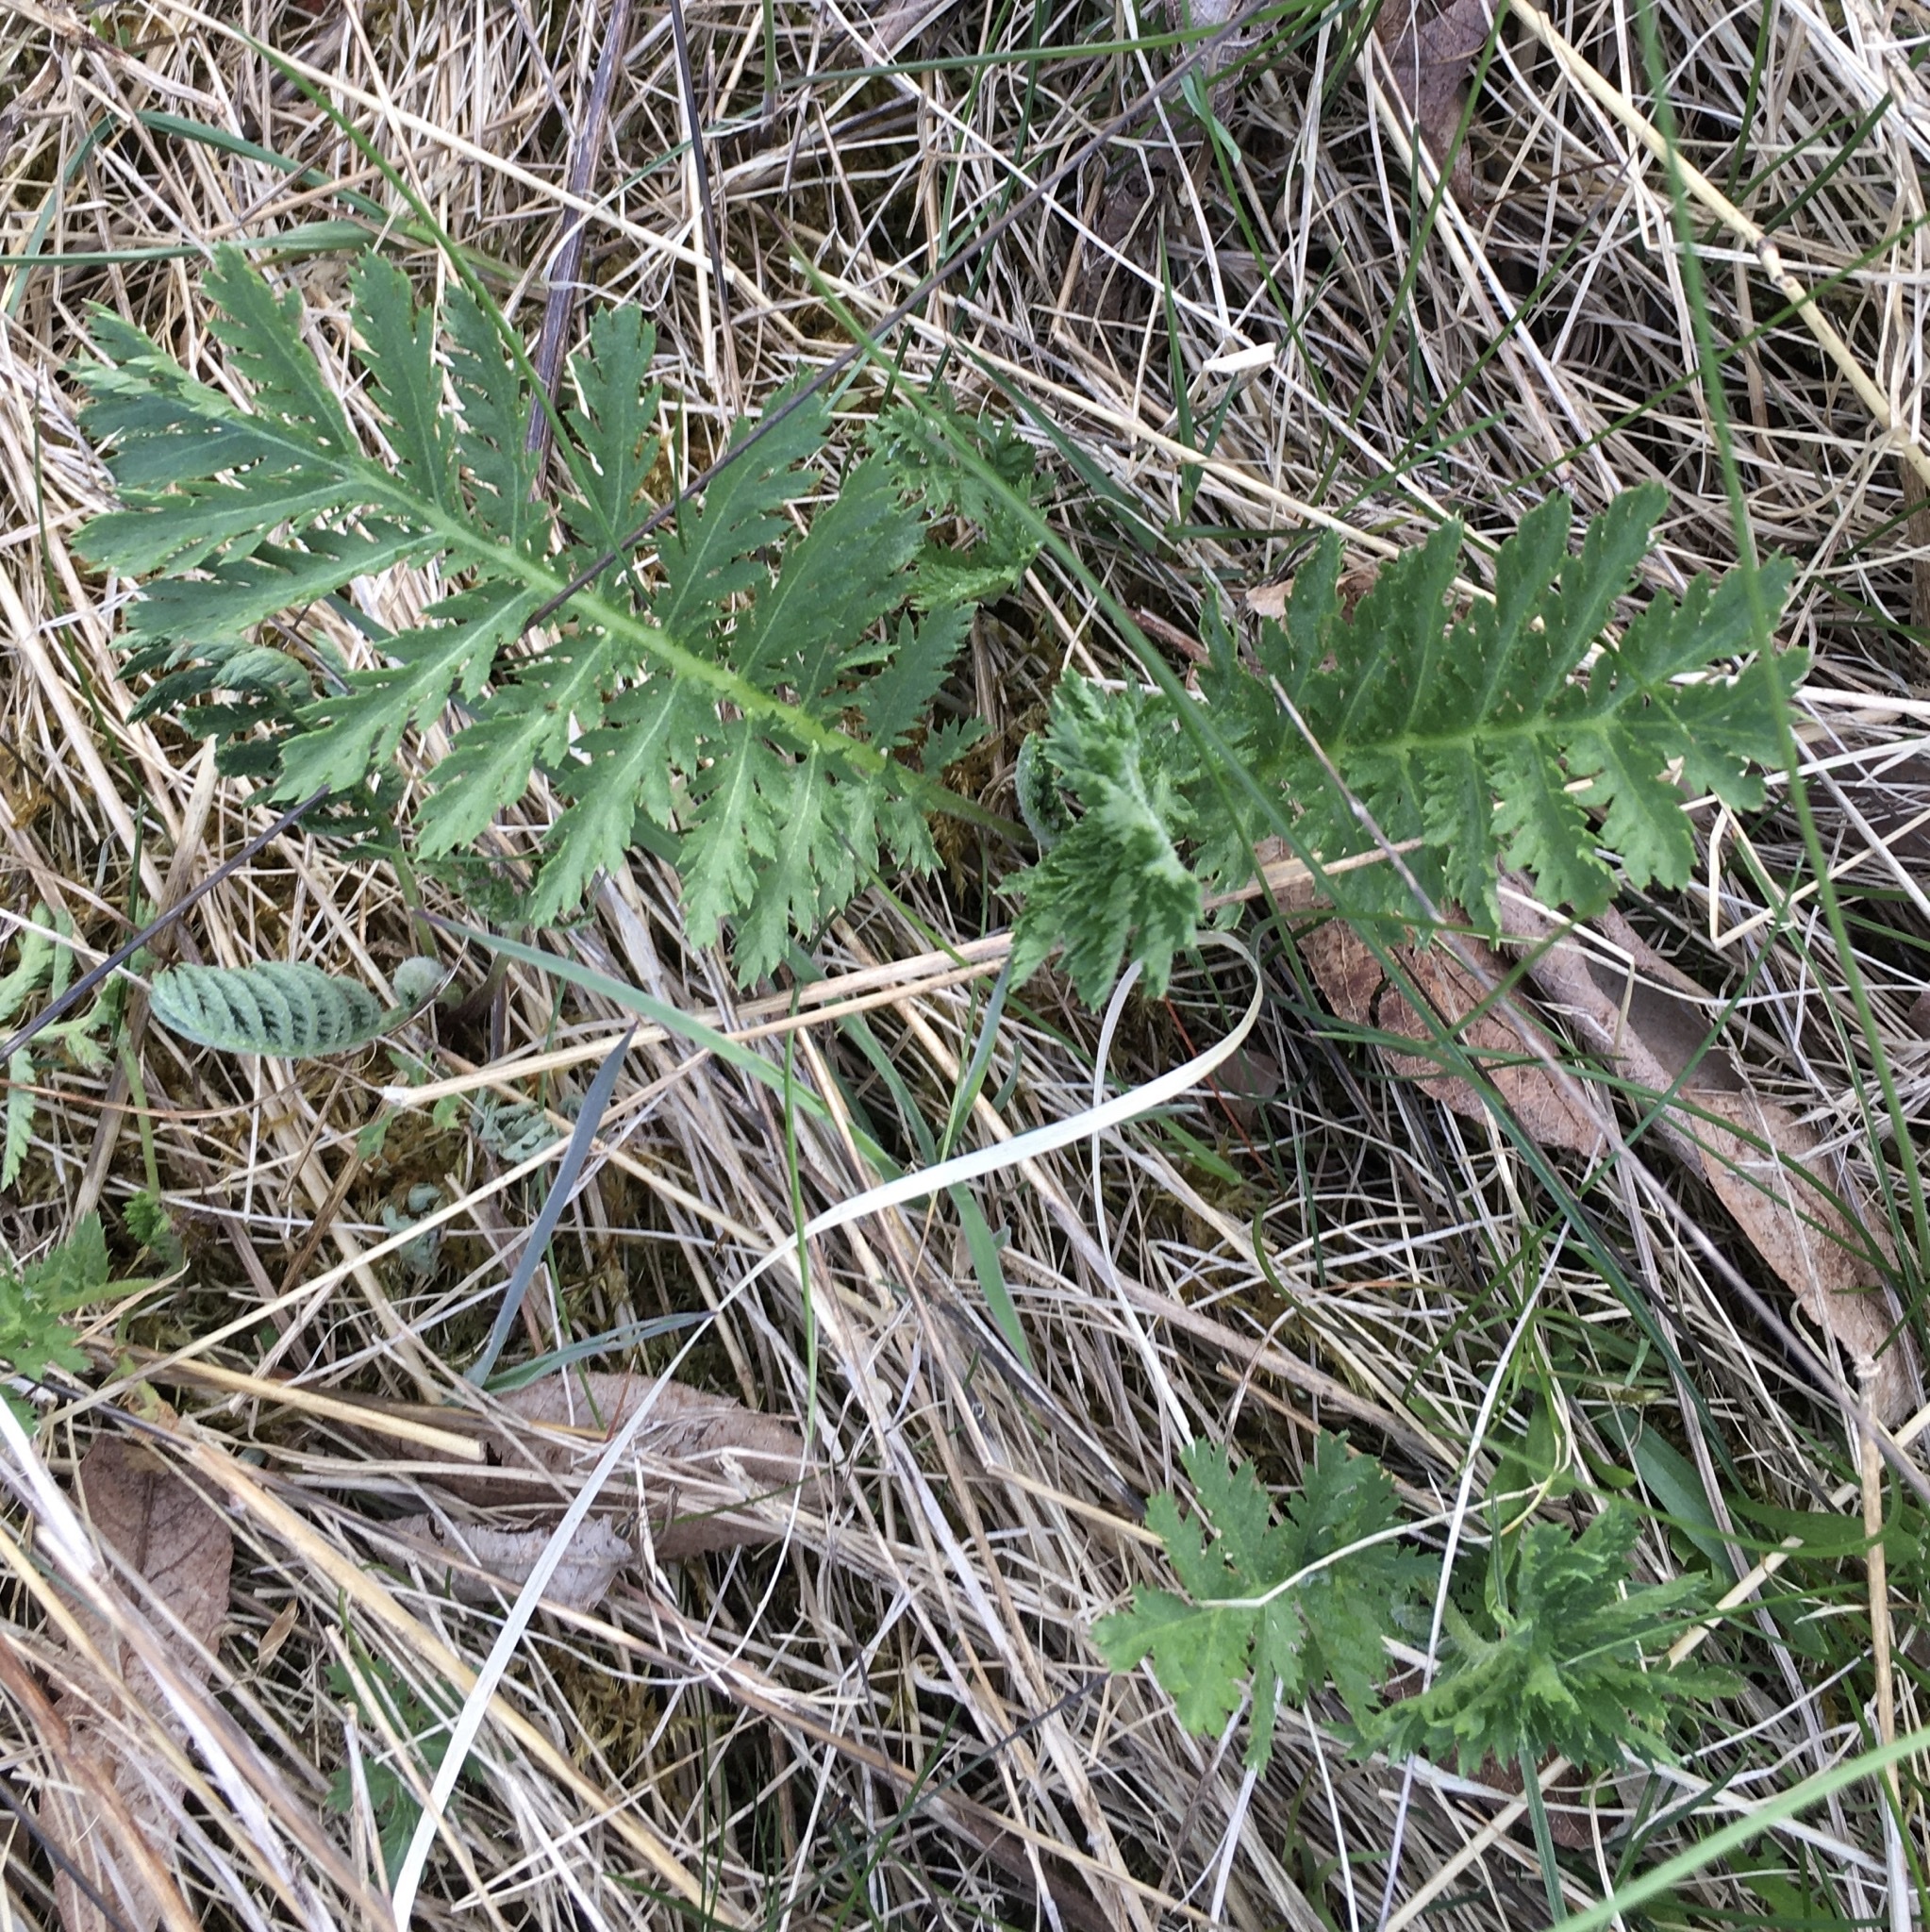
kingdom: Plantae
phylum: Tracheophyta
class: Magnoliopsida
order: Asterales
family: Asteraceae
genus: Tanacetum
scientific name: Tanacetum vulgare
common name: Common tansy
